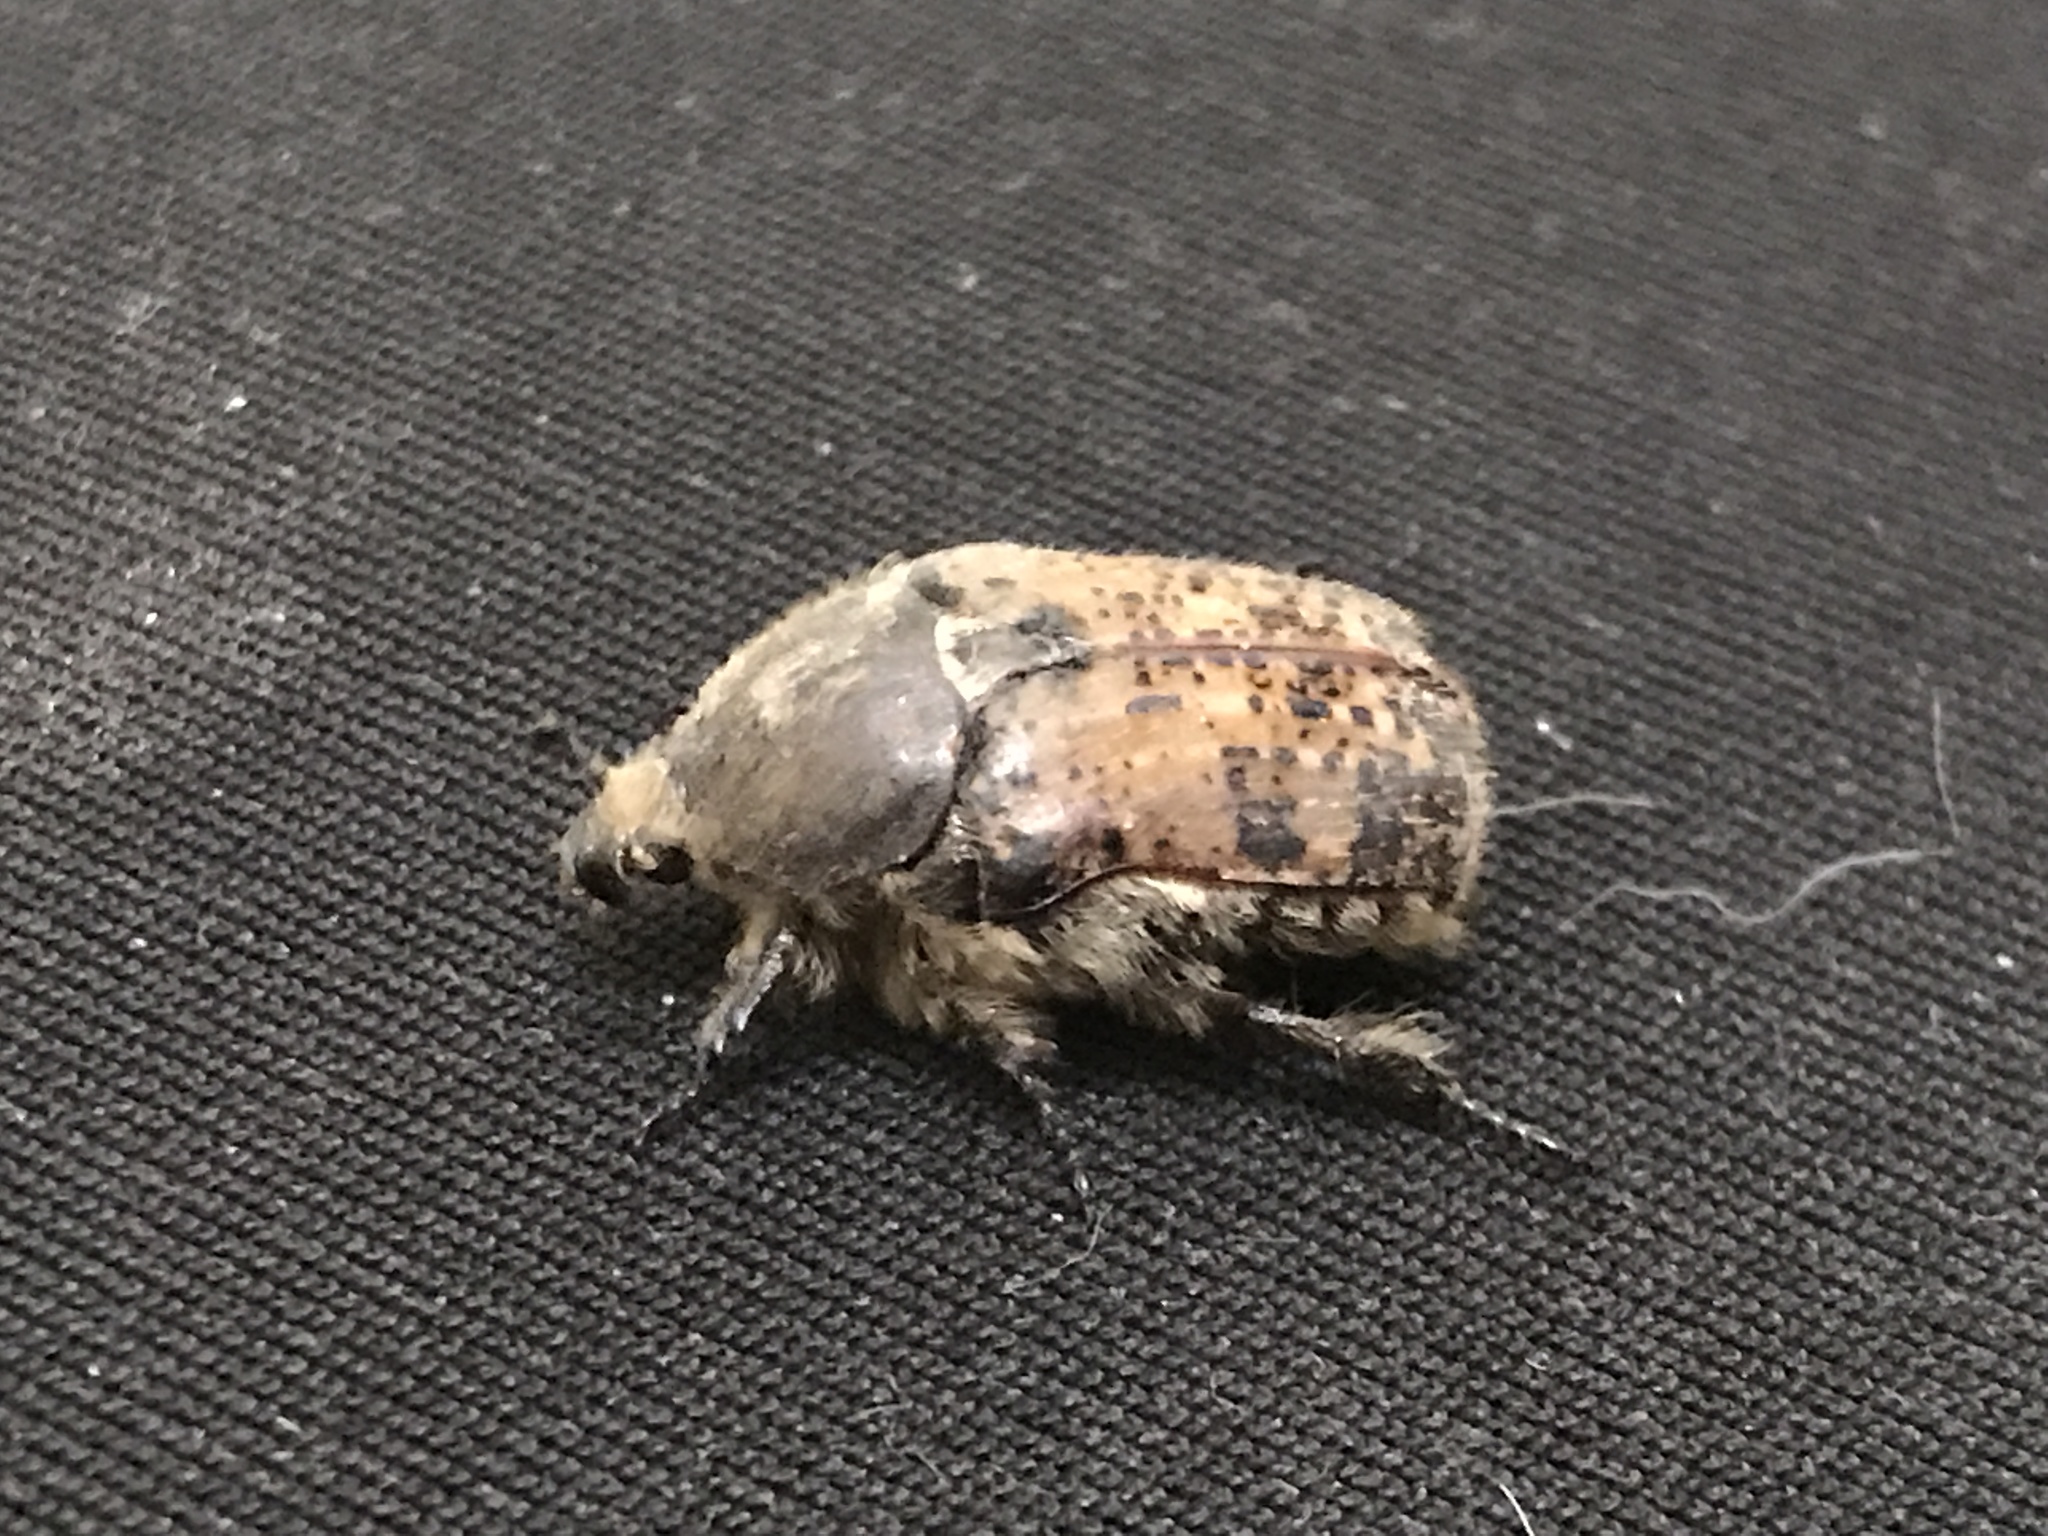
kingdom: Animalia
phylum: Arthropoda
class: Insecta
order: Coleoptera
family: Scarabaeidae
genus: Euphoria
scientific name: Euphoria inda
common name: Bumble flower beetle
